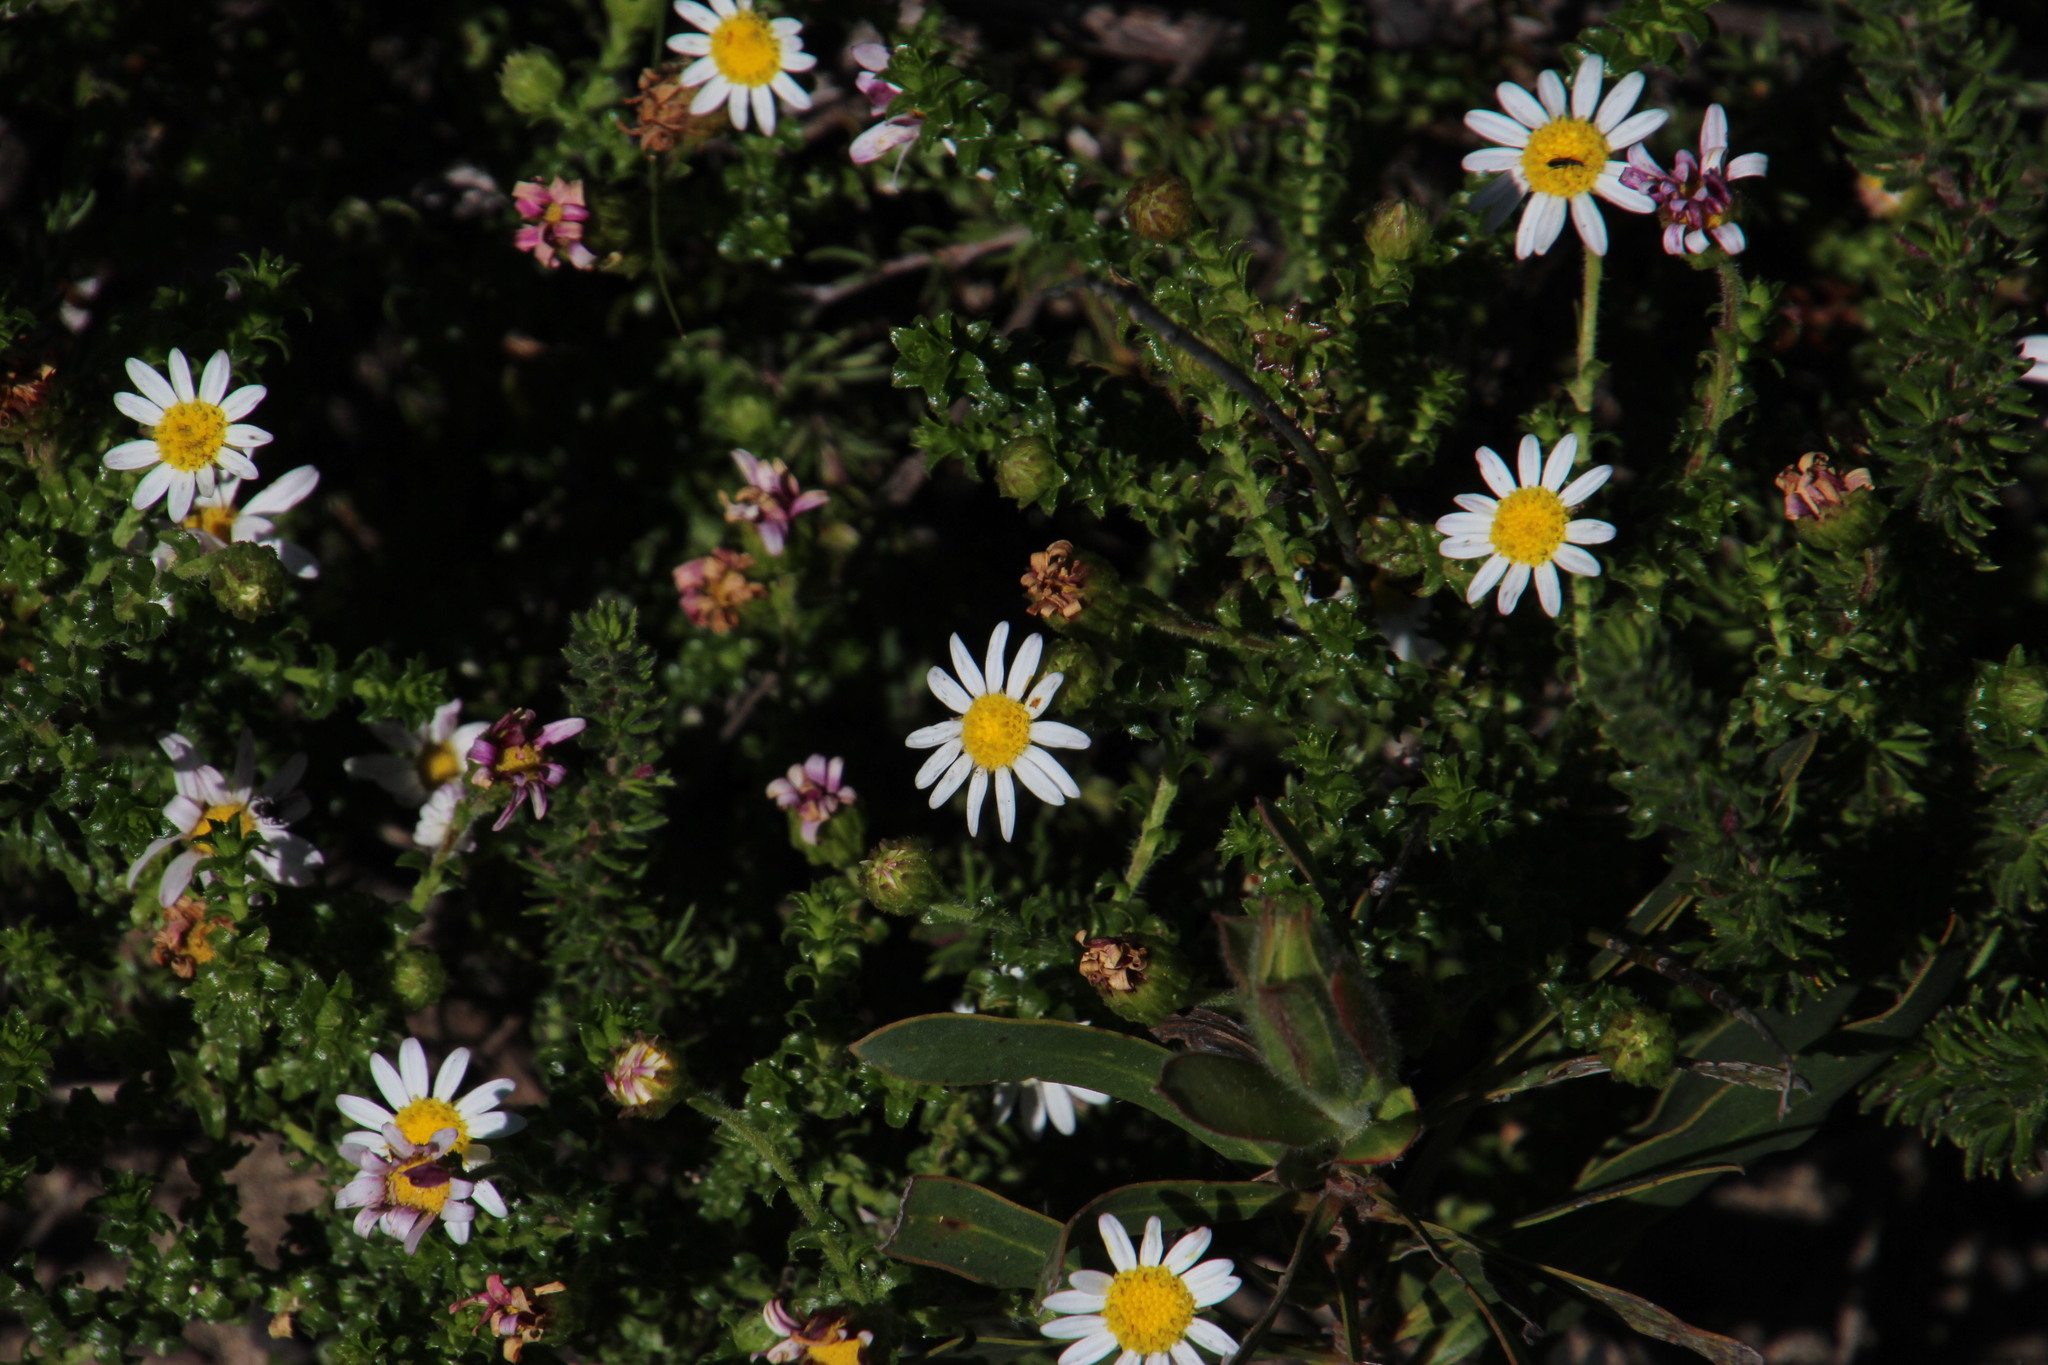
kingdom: Plantae
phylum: Tracheophyta
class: Magnoliopsida
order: Asterales
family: Asteraceae
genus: Polyarrhena
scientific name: Polyarrhena reflexa
